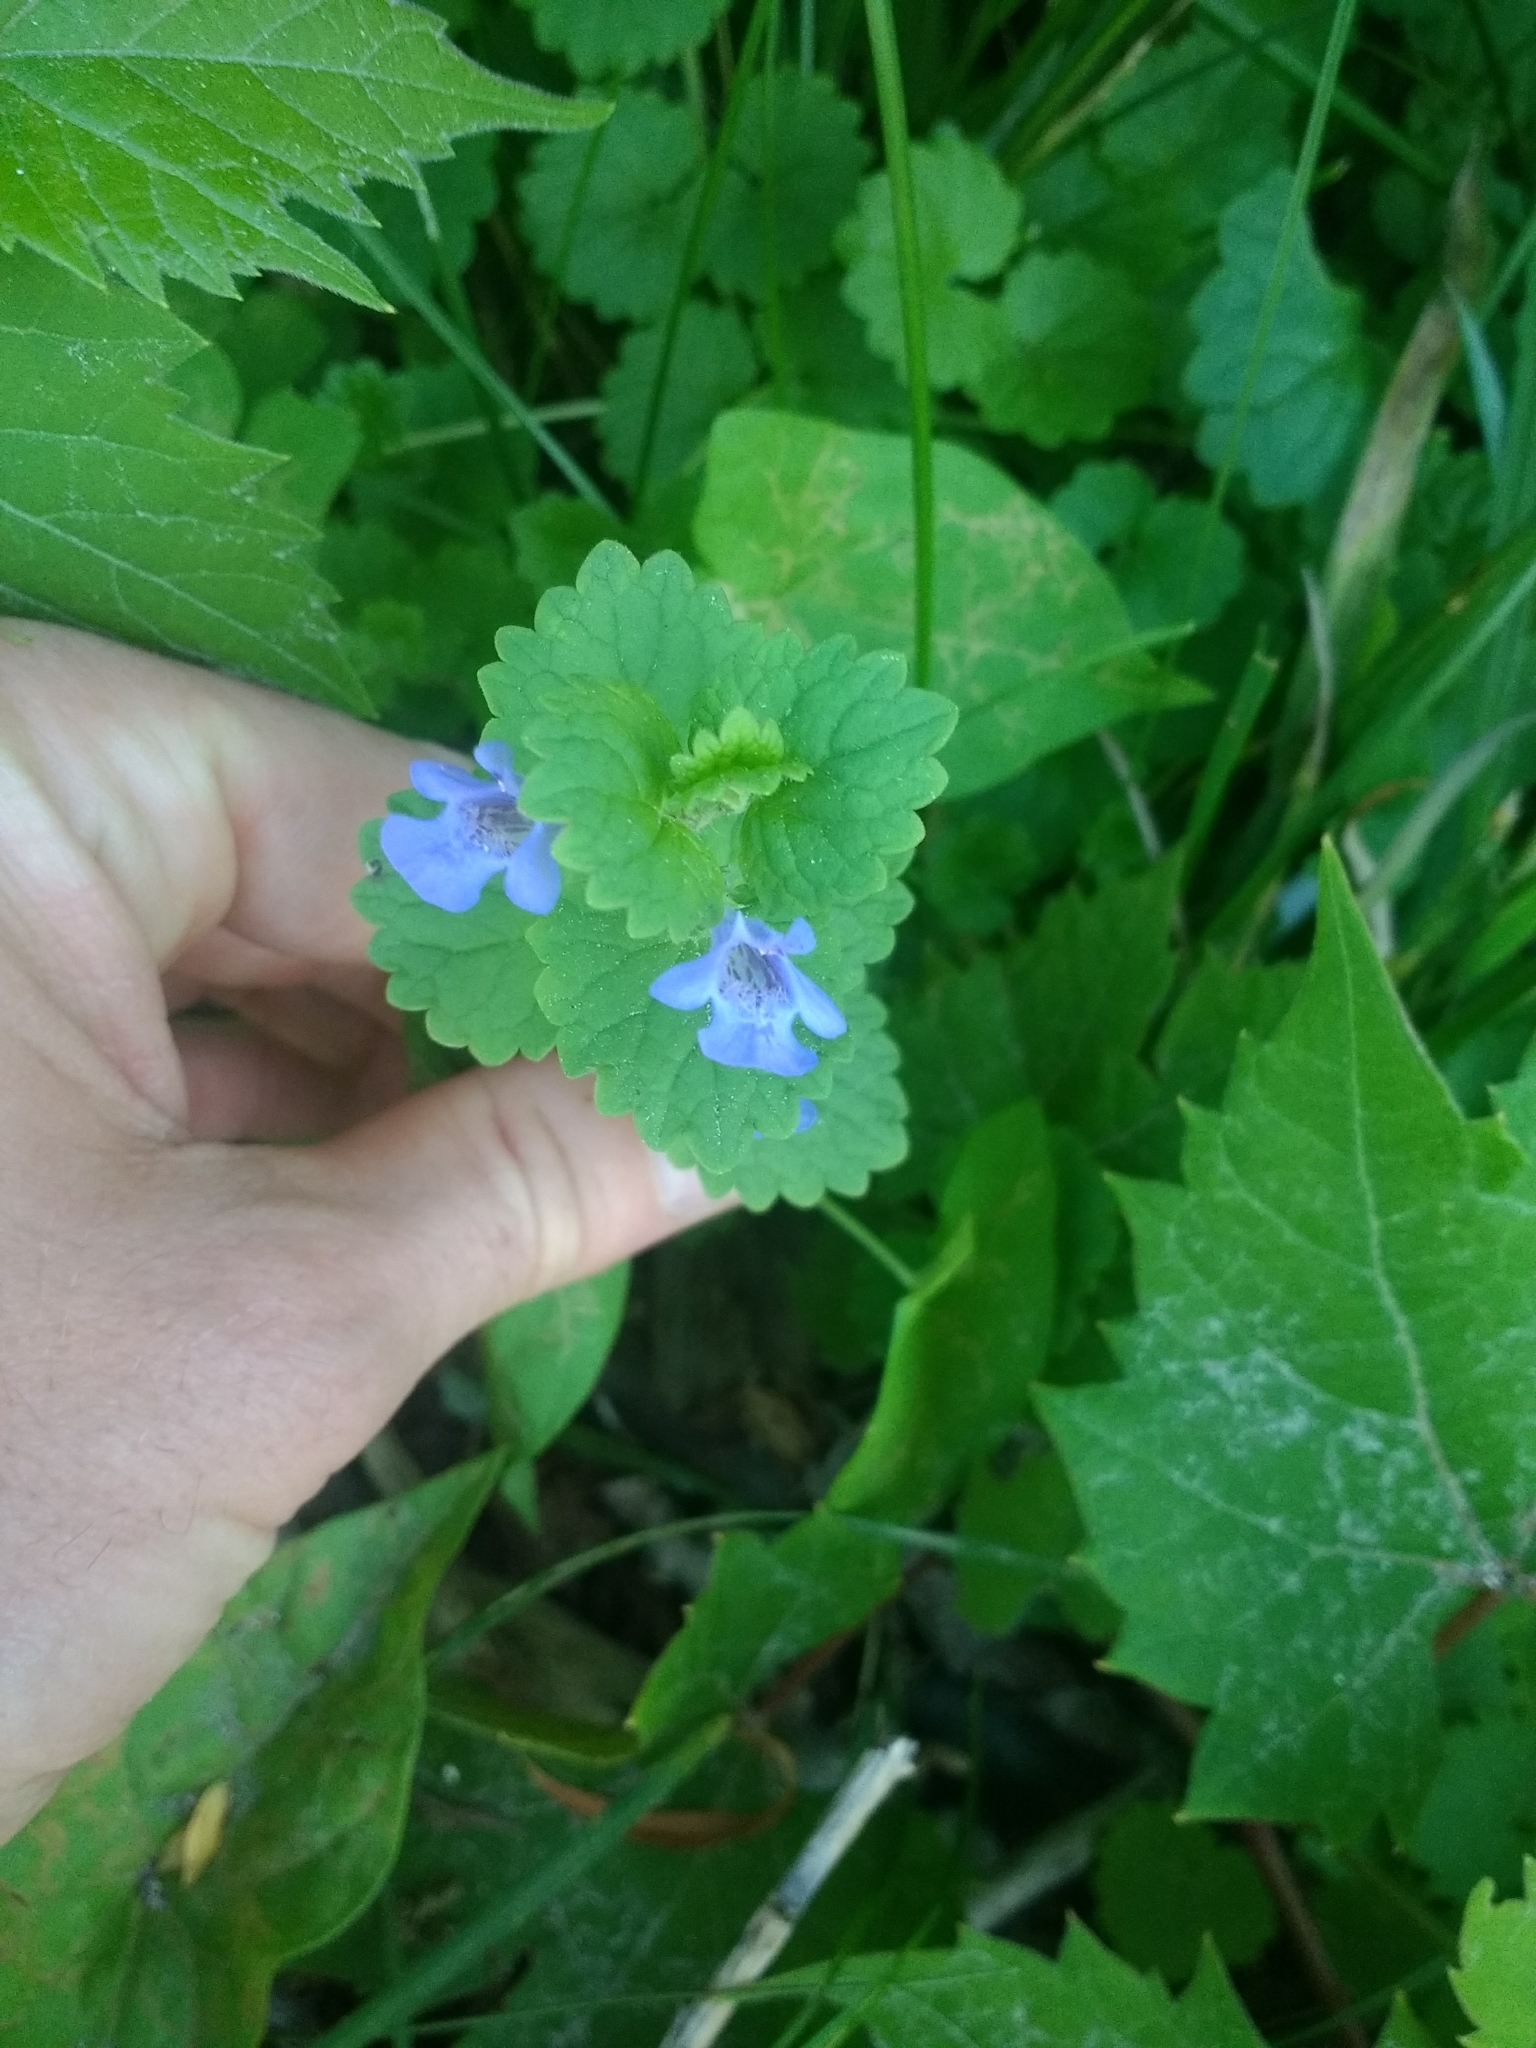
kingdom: Plantae
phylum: Tracheophyta
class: Magnoliopsida
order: Lamiales
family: Lamiaceae
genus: Glechoma
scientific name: Glechoma hederacea
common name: Ground ivy
